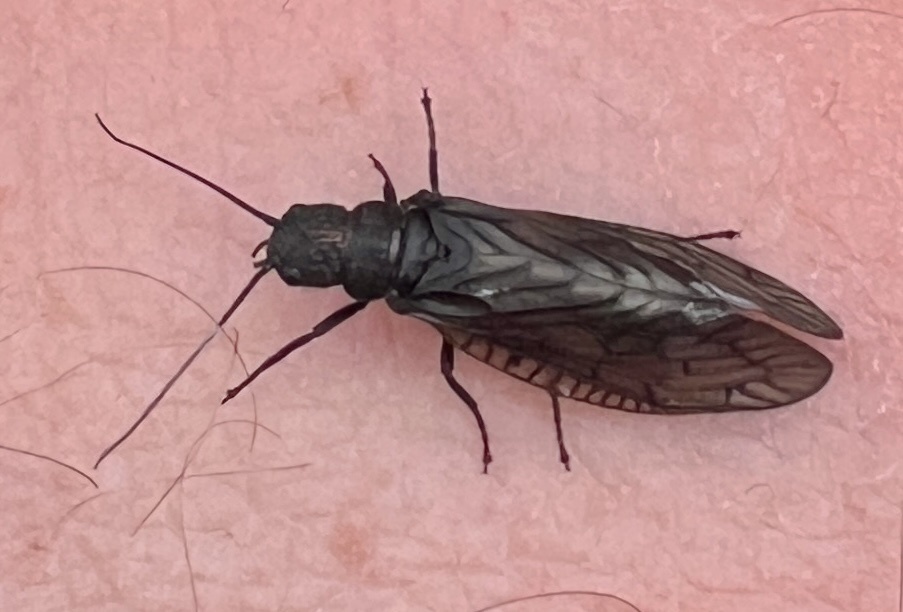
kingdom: Animalia
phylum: Arthropoda
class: Insecta
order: Megaloptera
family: Sialidae
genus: Sialis
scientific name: Sialis
